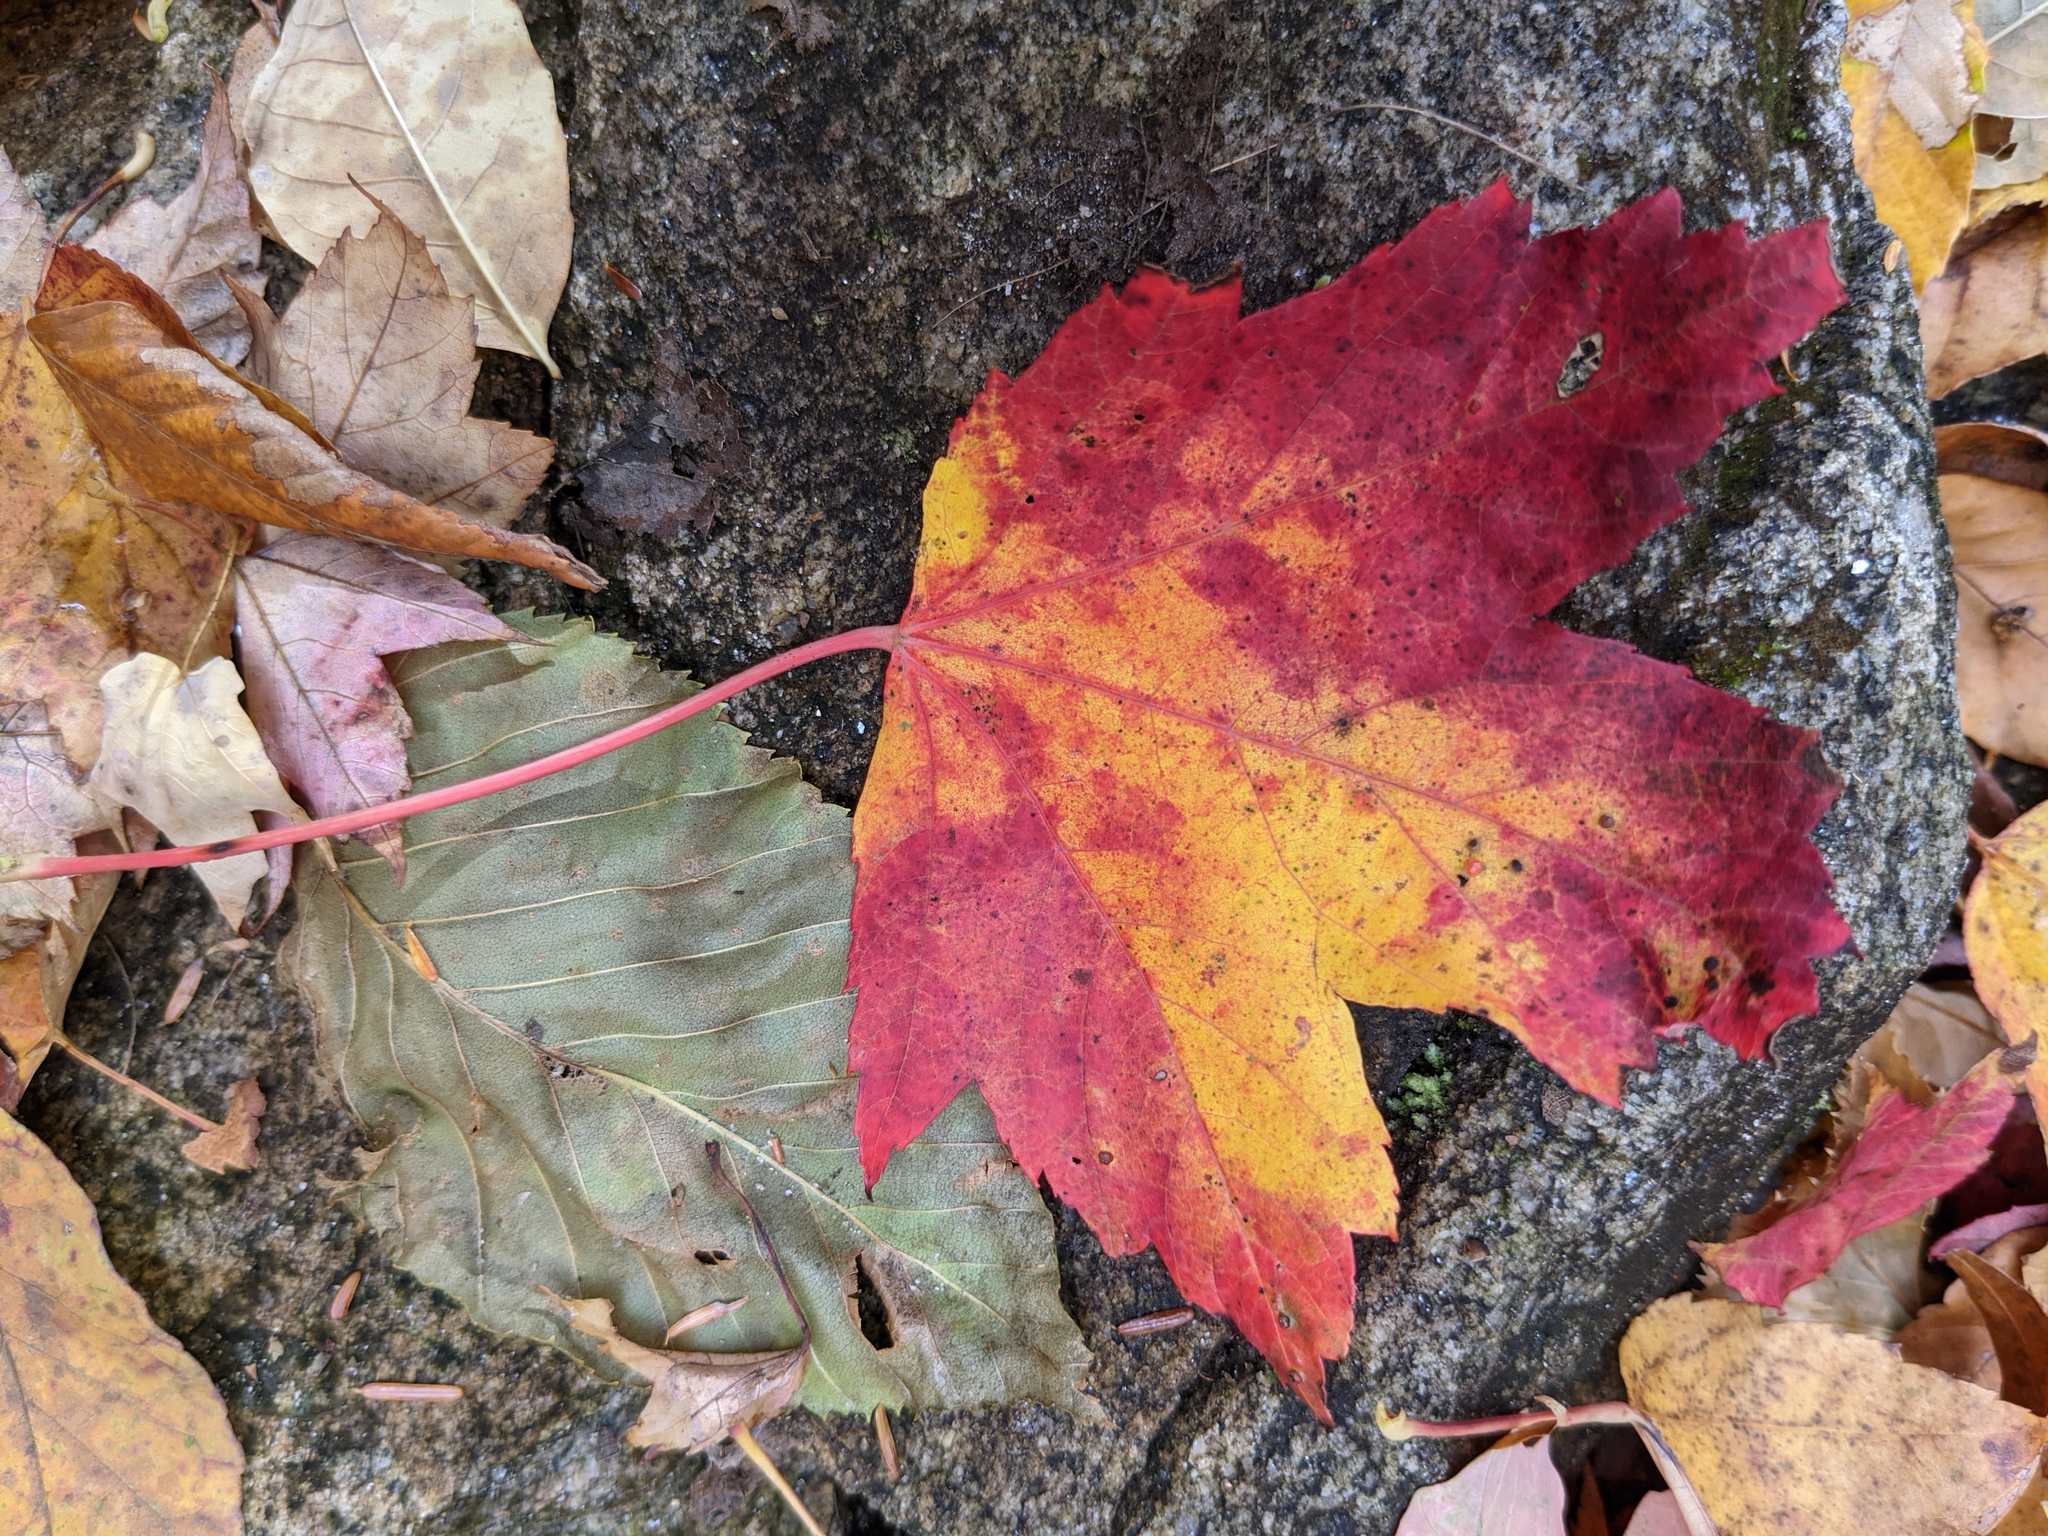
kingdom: Plantae
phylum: Tracheophyta
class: Magnoliopsida
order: Sapindales
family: Sapindaceae
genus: Acer
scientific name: Acer rubrum
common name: Red maple
